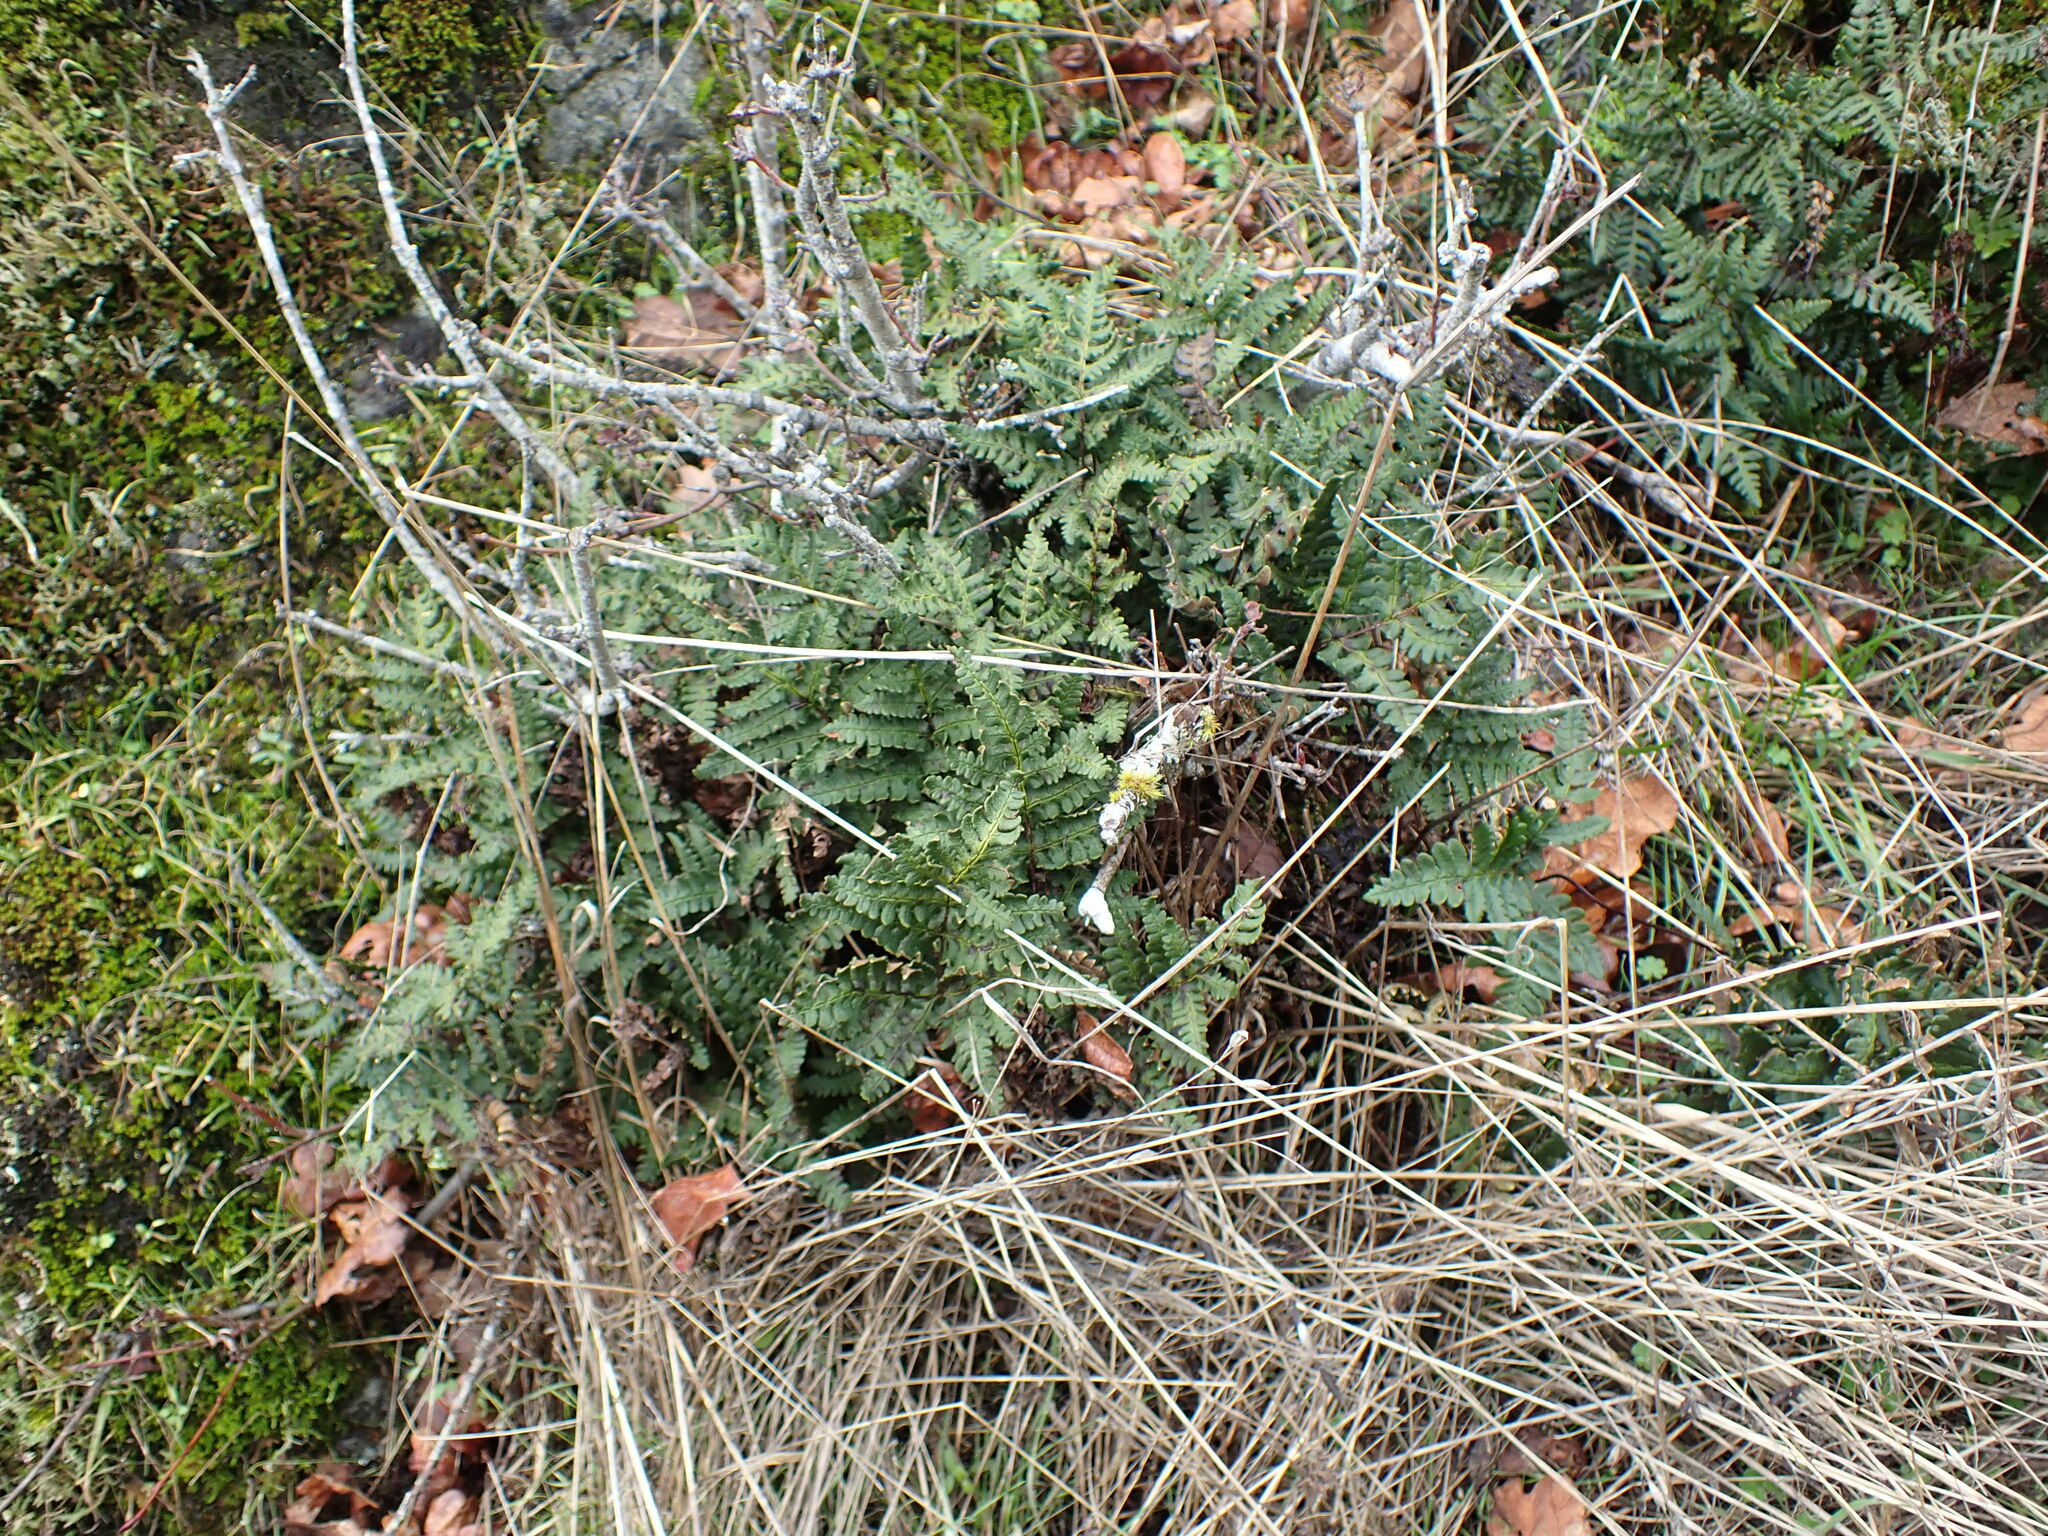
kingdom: Plantae
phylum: Tracheophyta
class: Polypodiopsida
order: Polypodiales
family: Pteridaceae
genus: Pentagramma
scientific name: Pentagramma triangularis
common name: Gold fern
